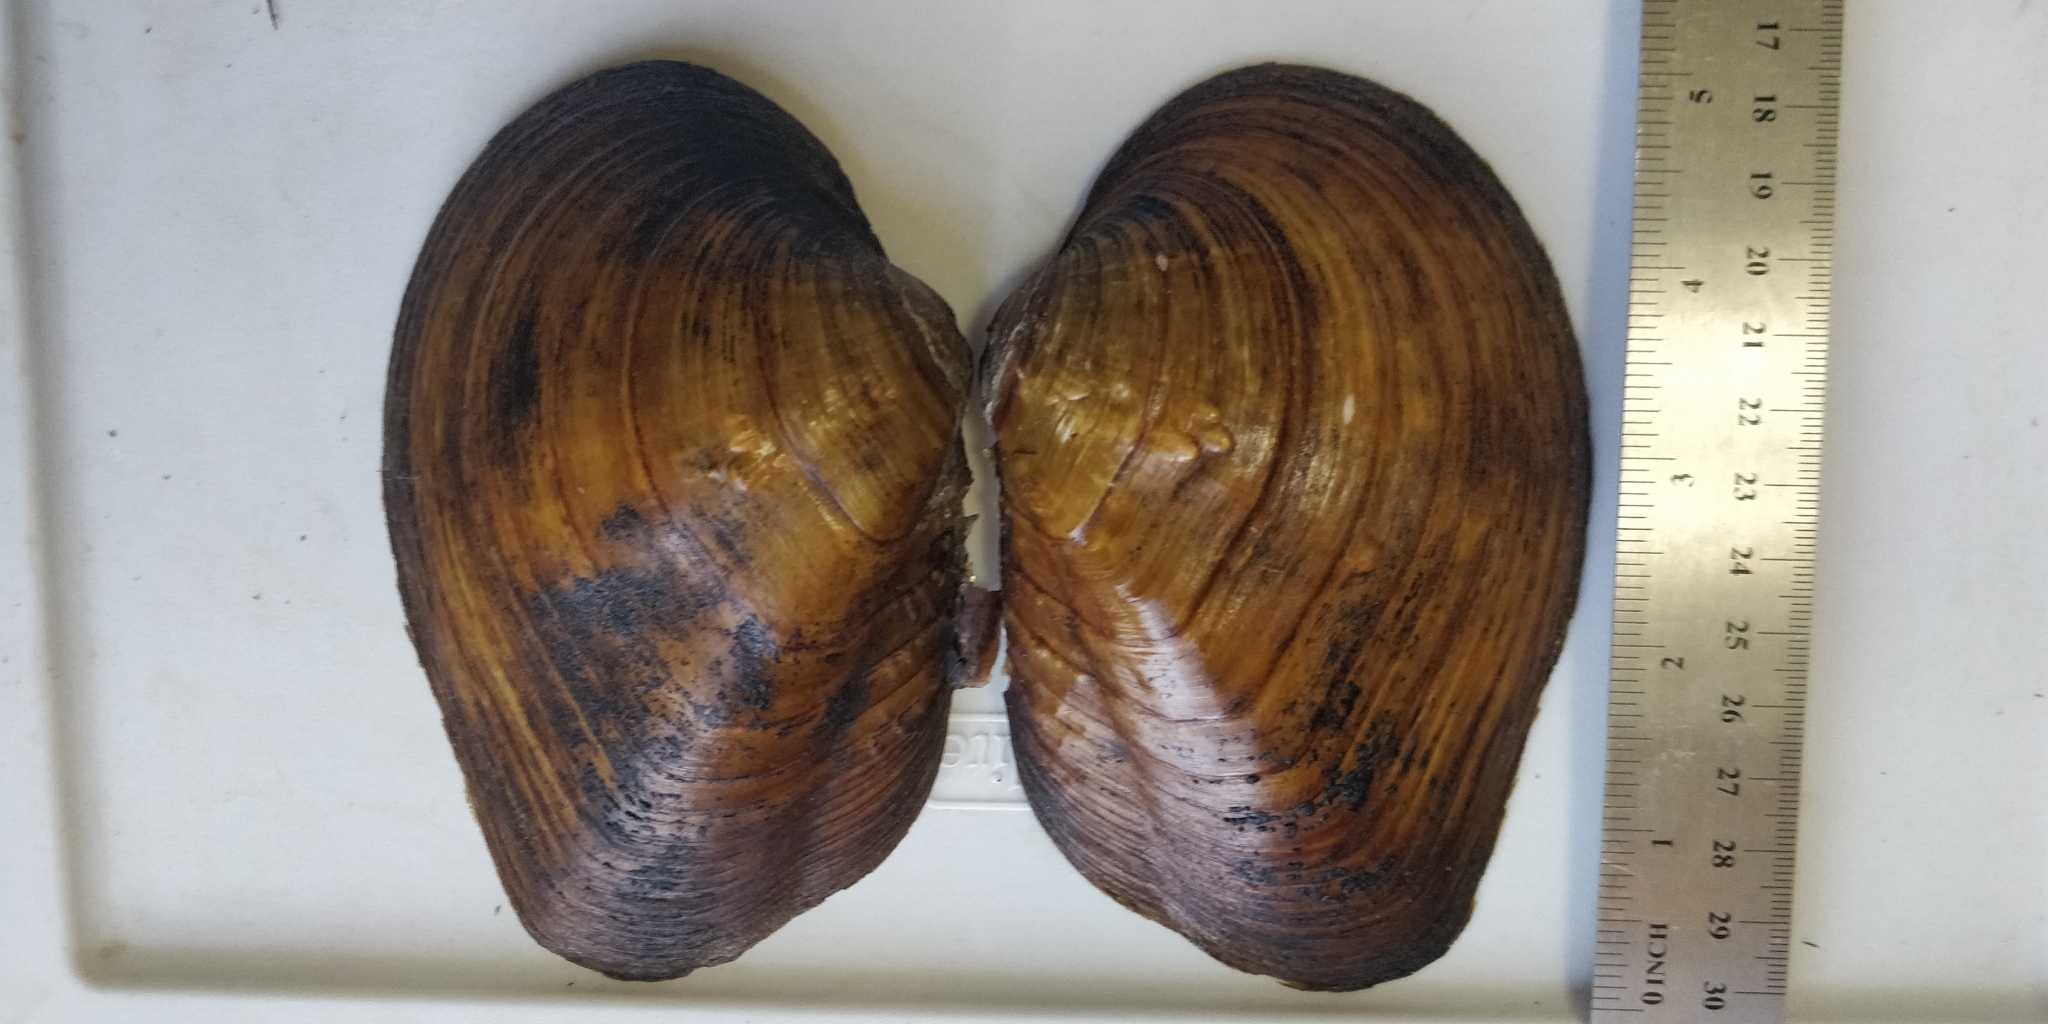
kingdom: Animalia
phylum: Mollusca
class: Bivalvia
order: Unionida
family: Unionidae
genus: Quadrula
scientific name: Quadrula quadrula
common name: Mapleleaf
